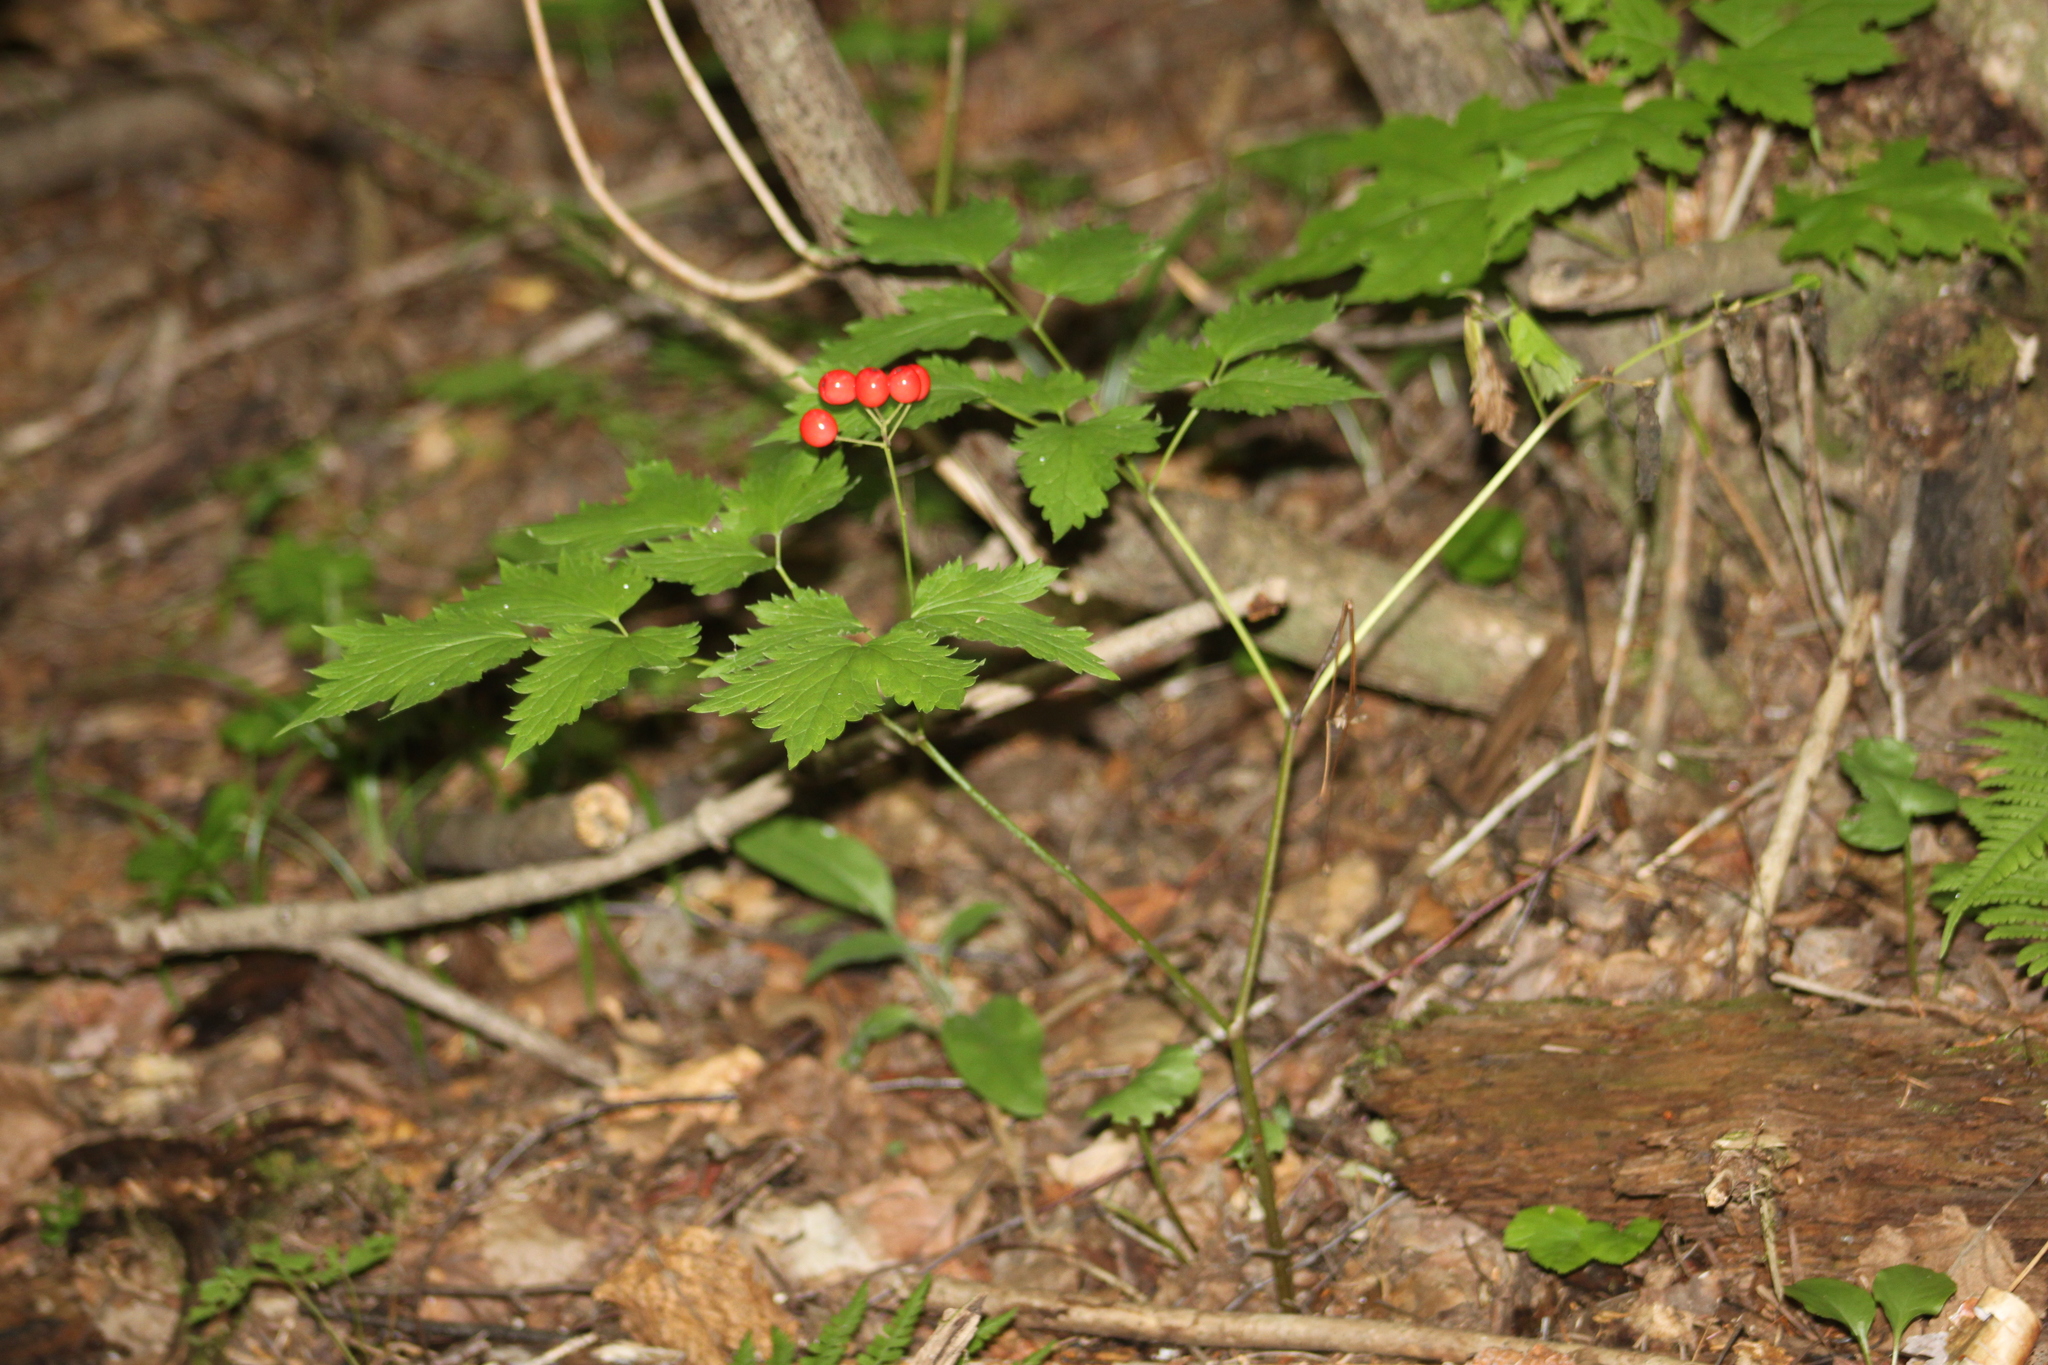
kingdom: Plantae
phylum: Tracheophyta
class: Magnoliopsida
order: Ranunculales
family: Ranunculaceae
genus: Actaea
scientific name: Actaea rubra
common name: Red baneberry
